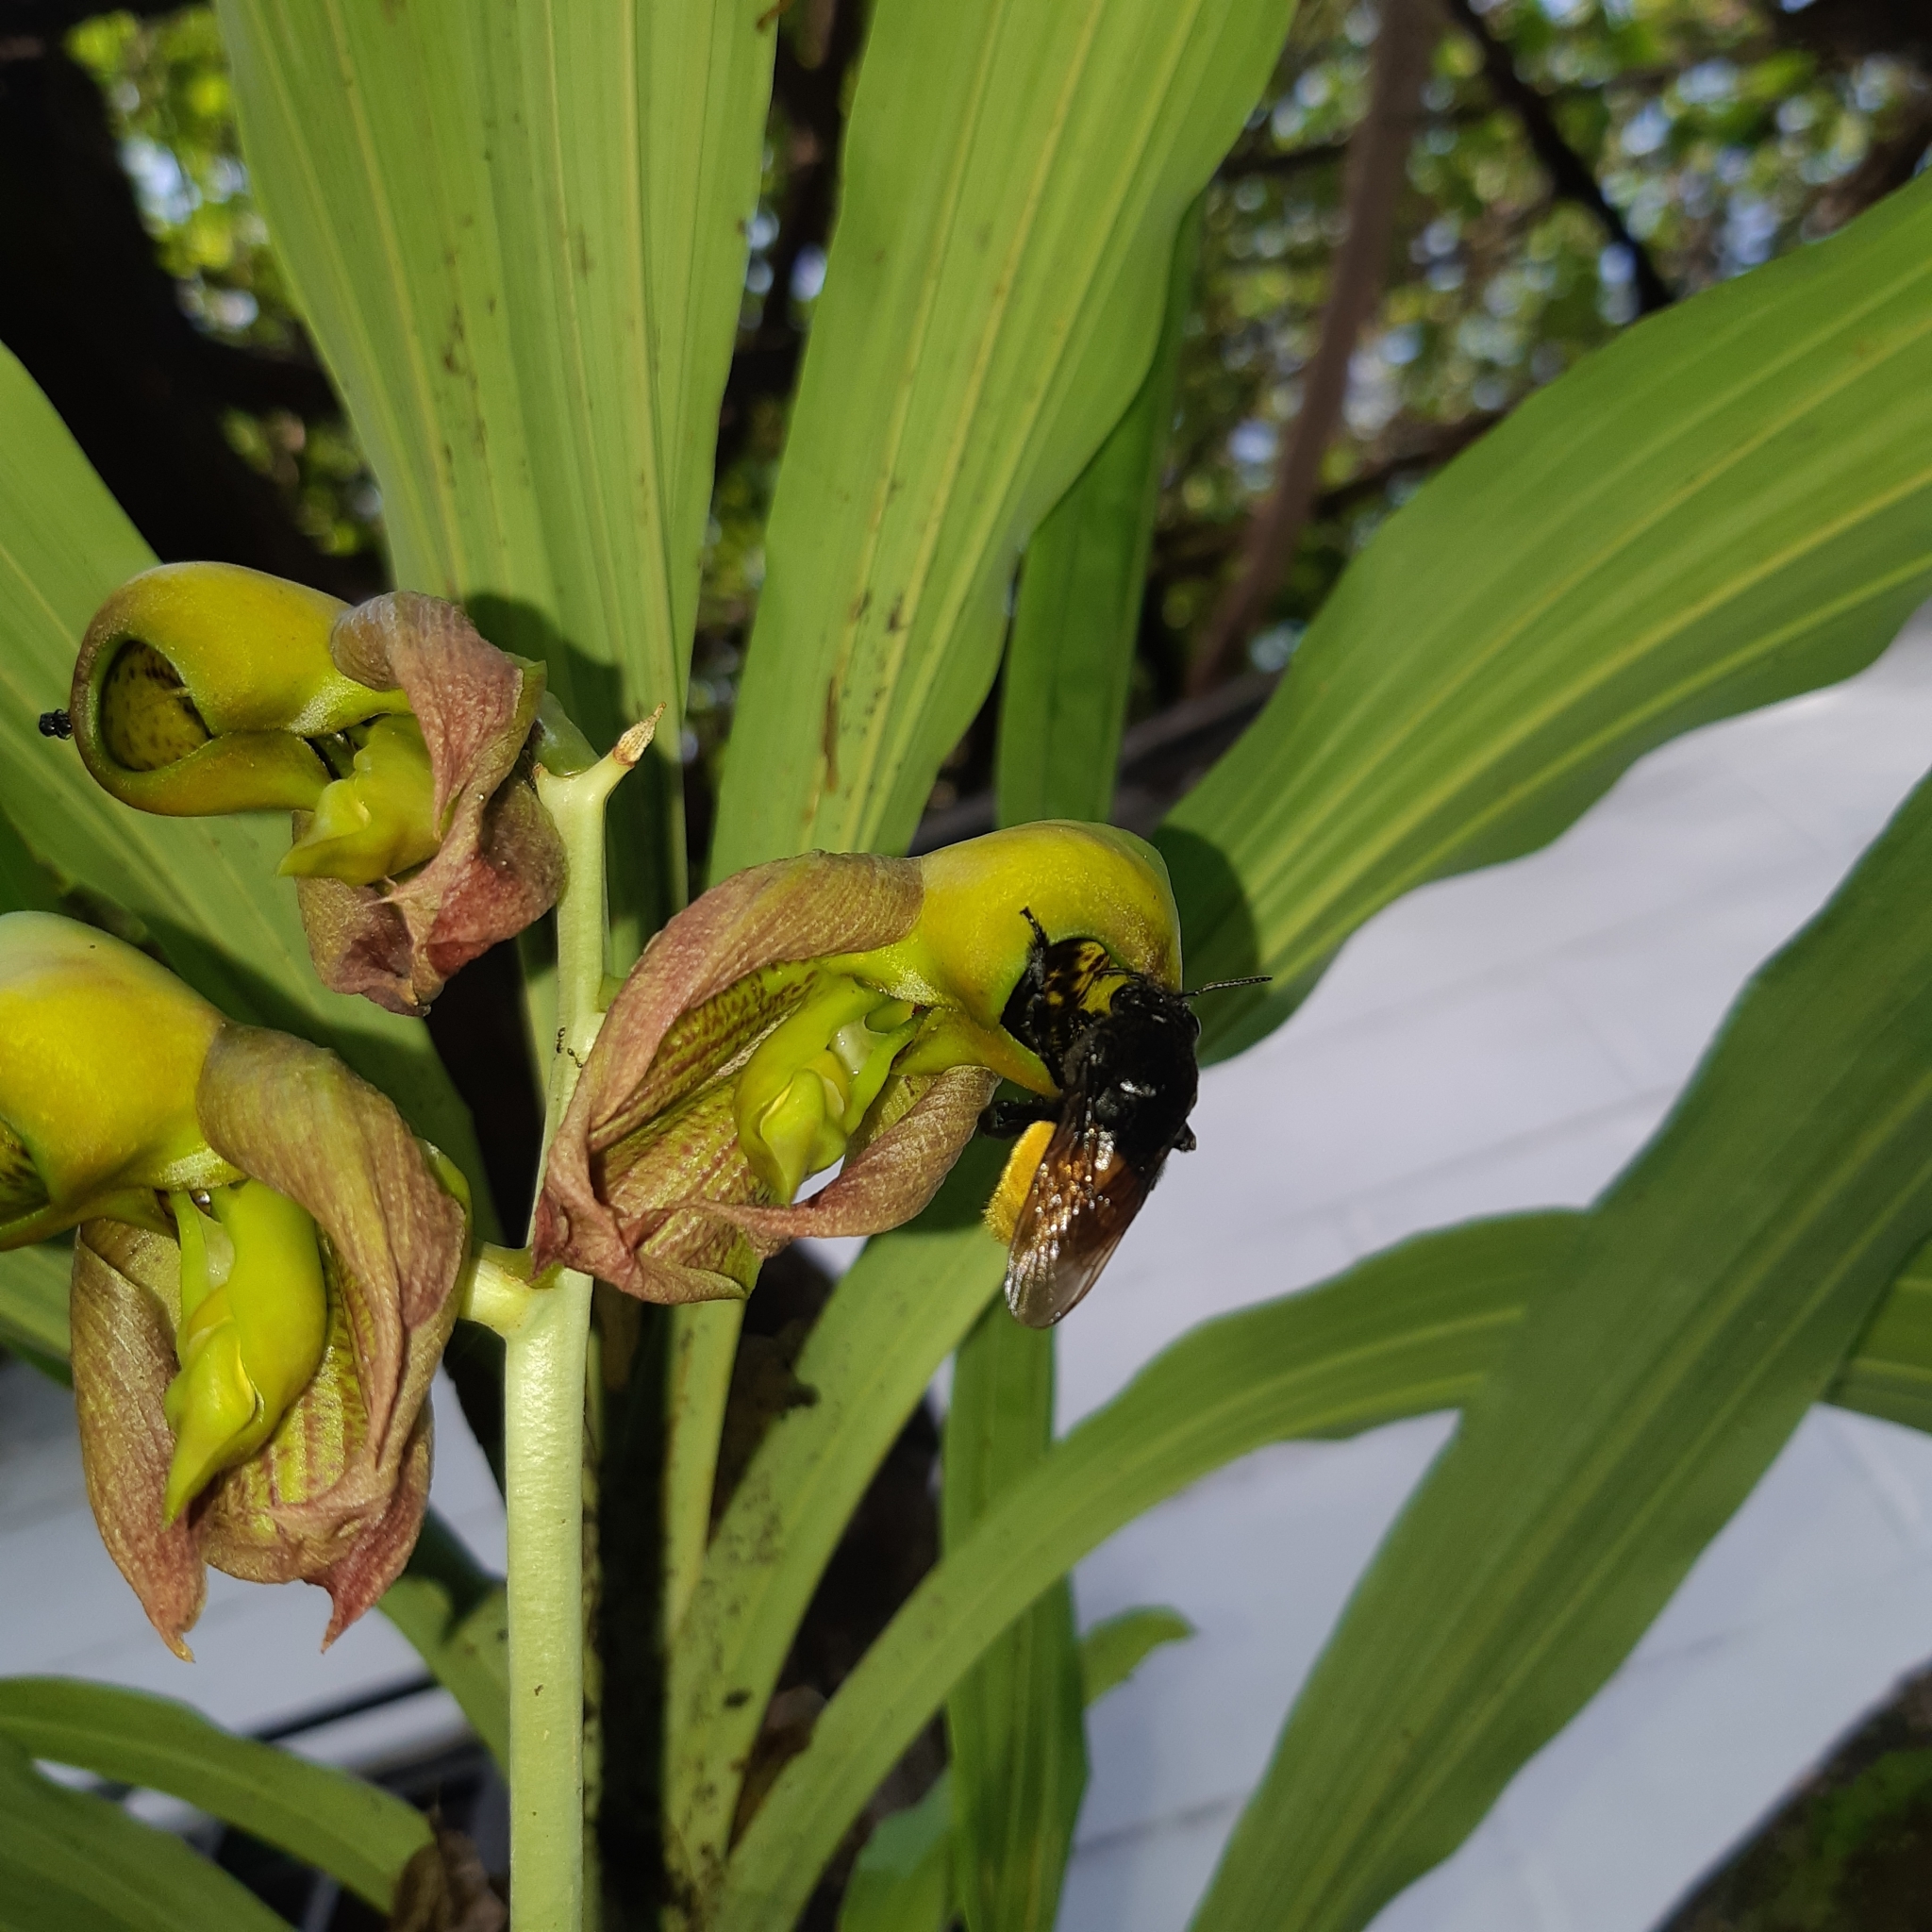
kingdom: Animalia
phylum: Arthropoda
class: Insecta
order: Hymenoptera
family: Apidae
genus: Eulaema
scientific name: Eulaema polychroma
